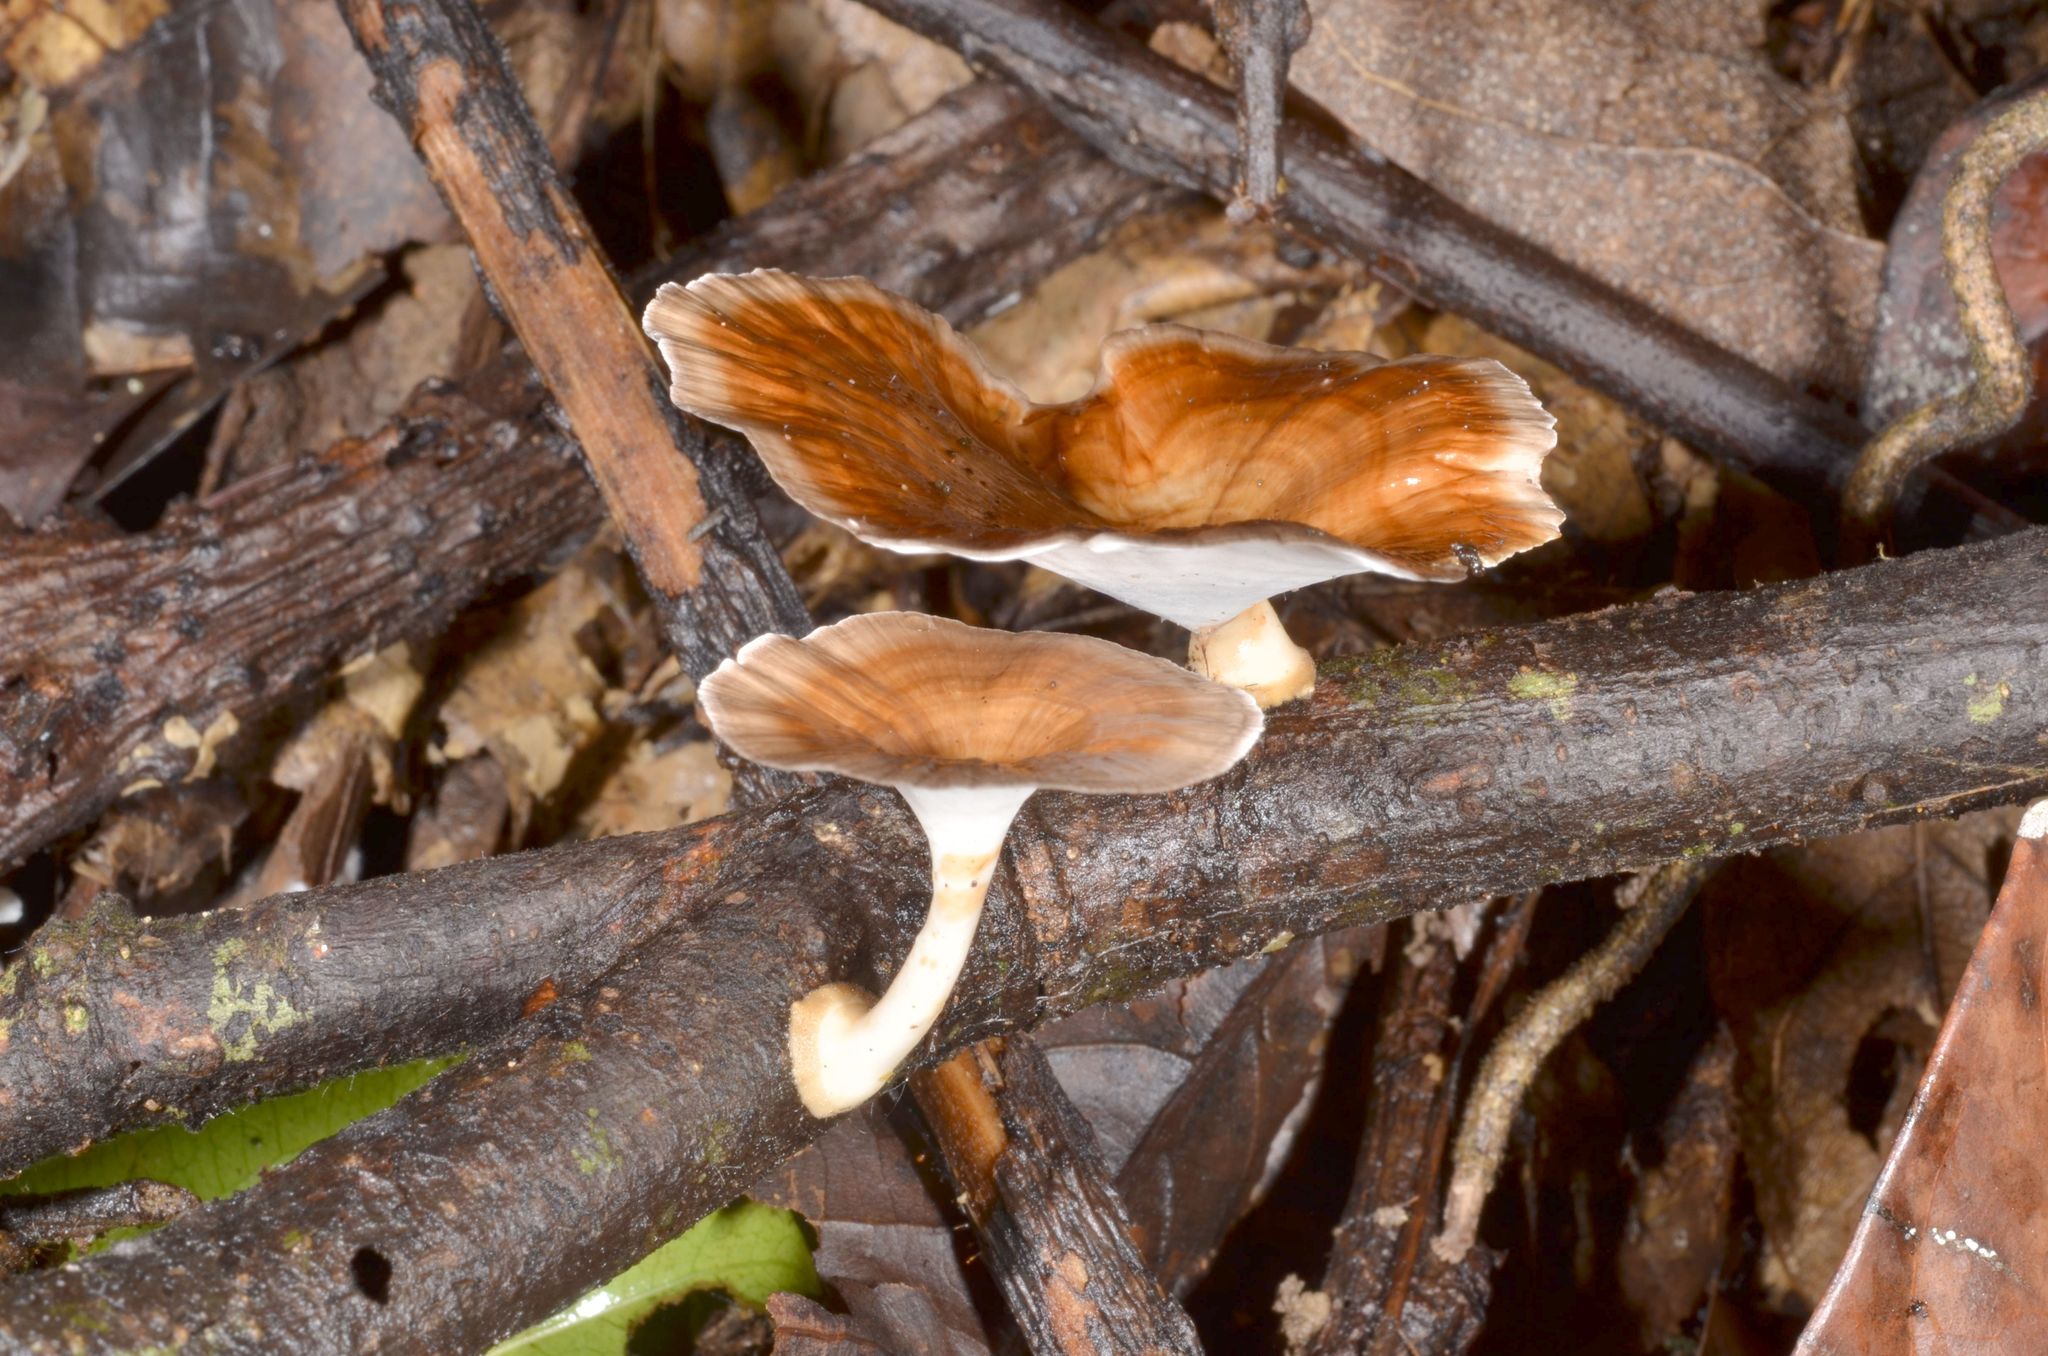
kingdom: Fungi
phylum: Basidiomycota
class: Agaricomycetes
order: Polyporales
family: Polyporaceae
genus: Microporus
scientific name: Microporus xanthopus
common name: Yellow-stemmed micropore
